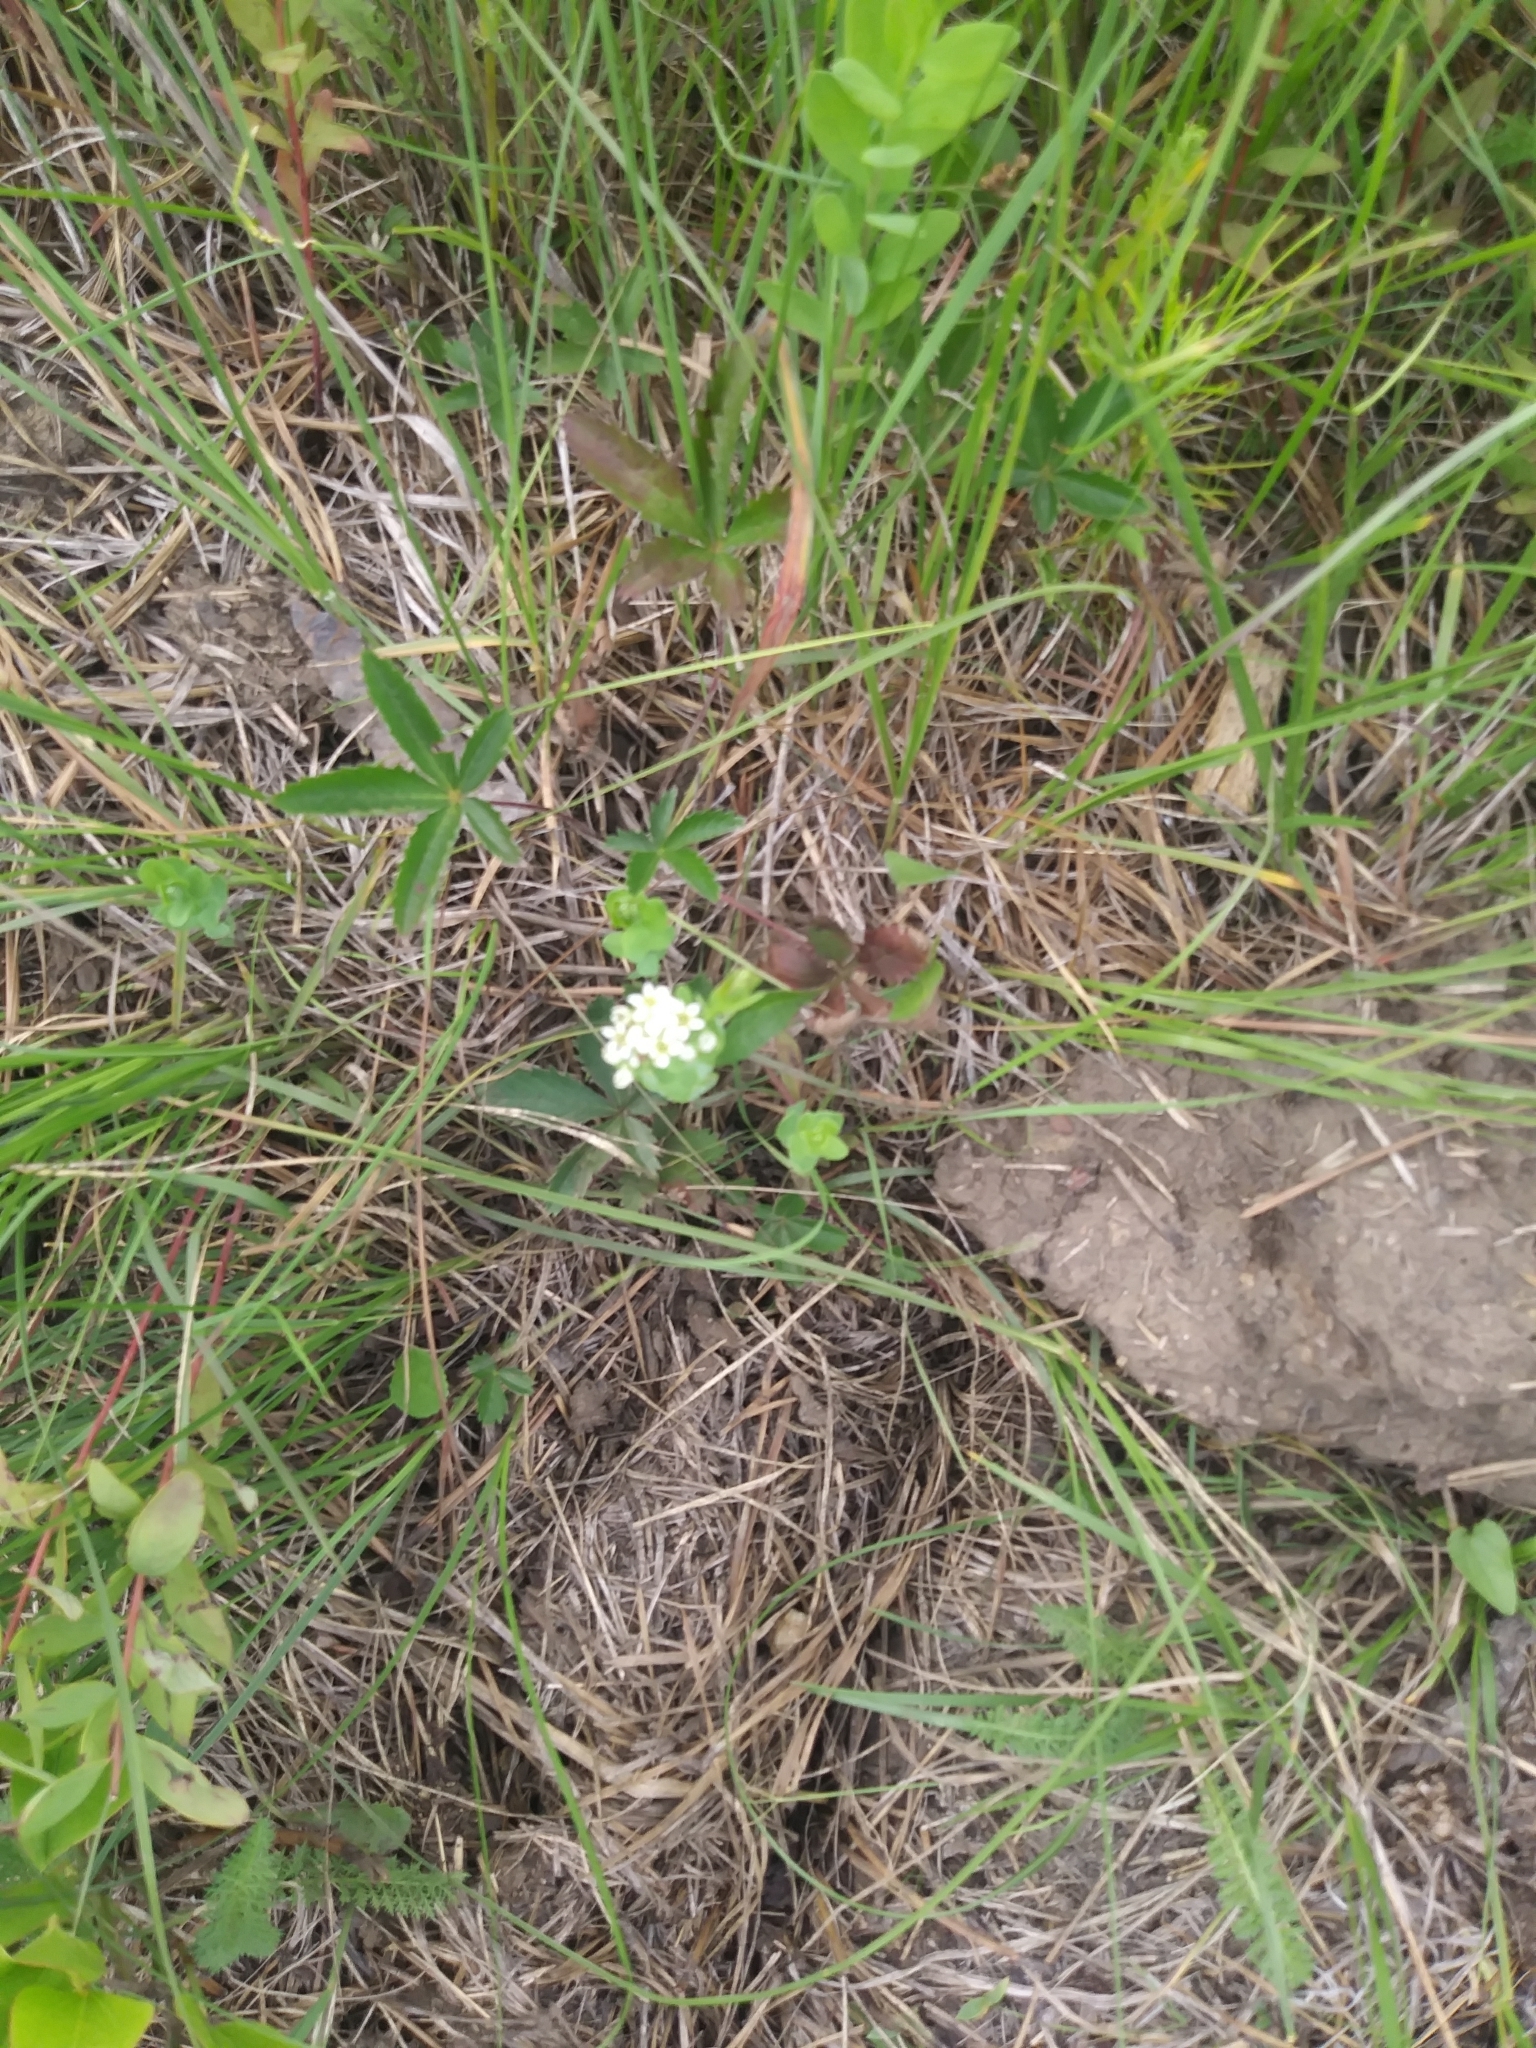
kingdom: Plantae
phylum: Tracheophyta
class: Magnoliopsida
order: Santalales
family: Comandraceae
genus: Comandra
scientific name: Comandra umbellata
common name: Bastard toadflax
